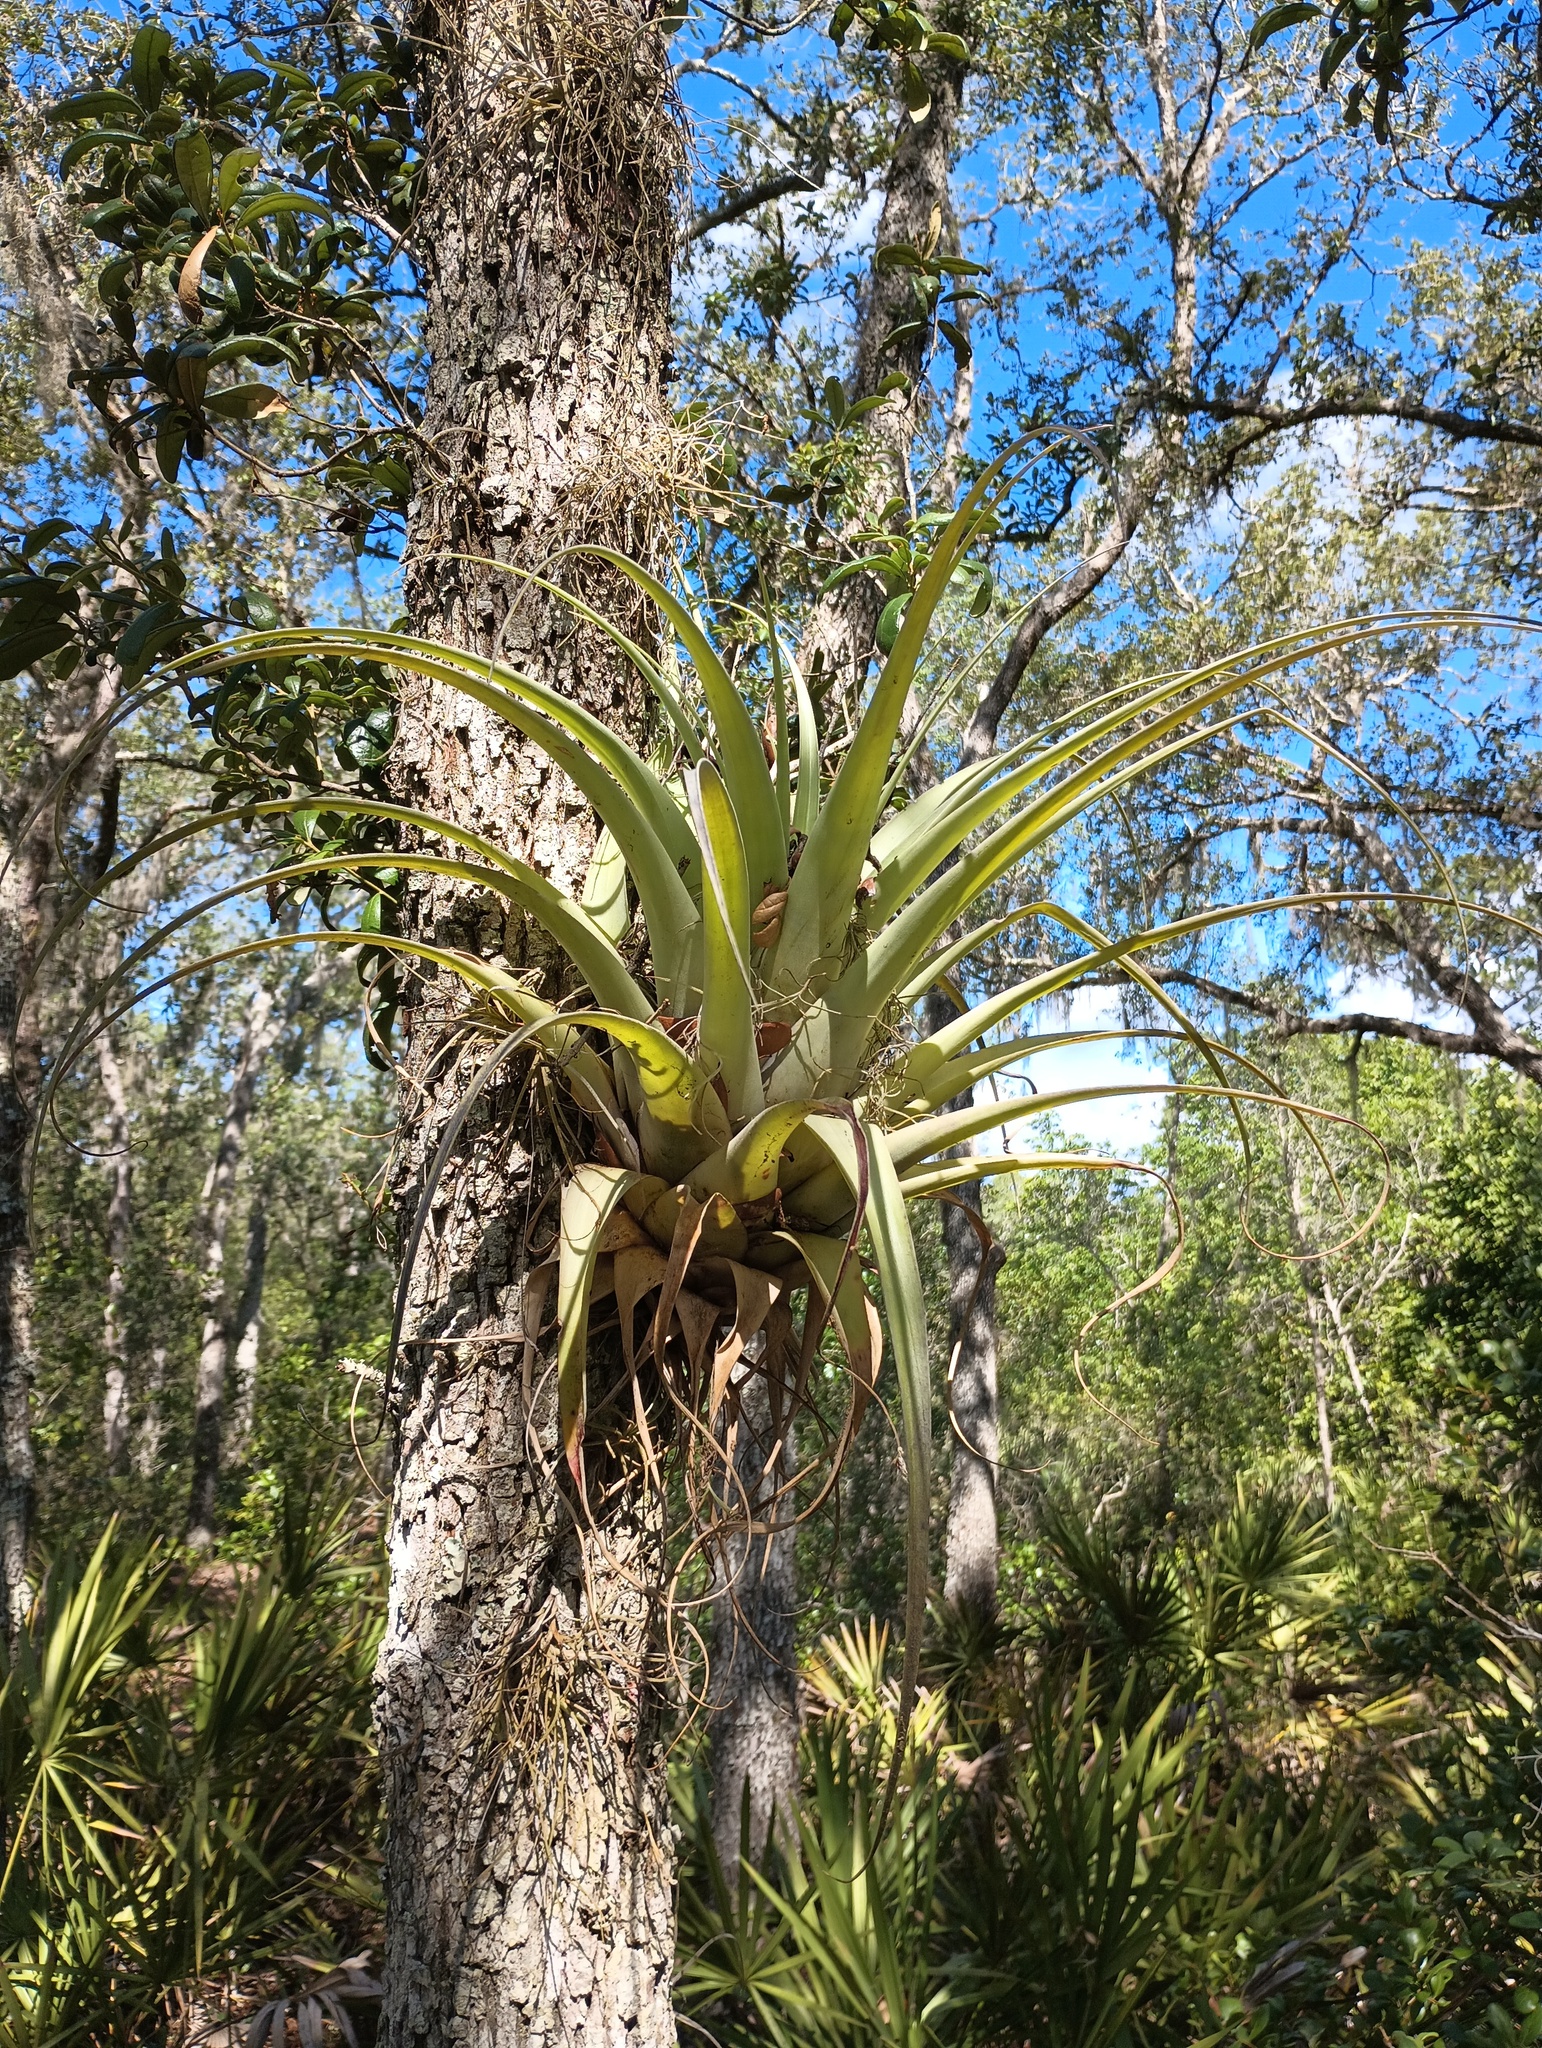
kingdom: Plantae
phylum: Tracheophyta
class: Liliopsida
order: Poales
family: Bromeliaceae
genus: Tillandsia
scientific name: Tillandsia utriculata
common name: Wild pine
